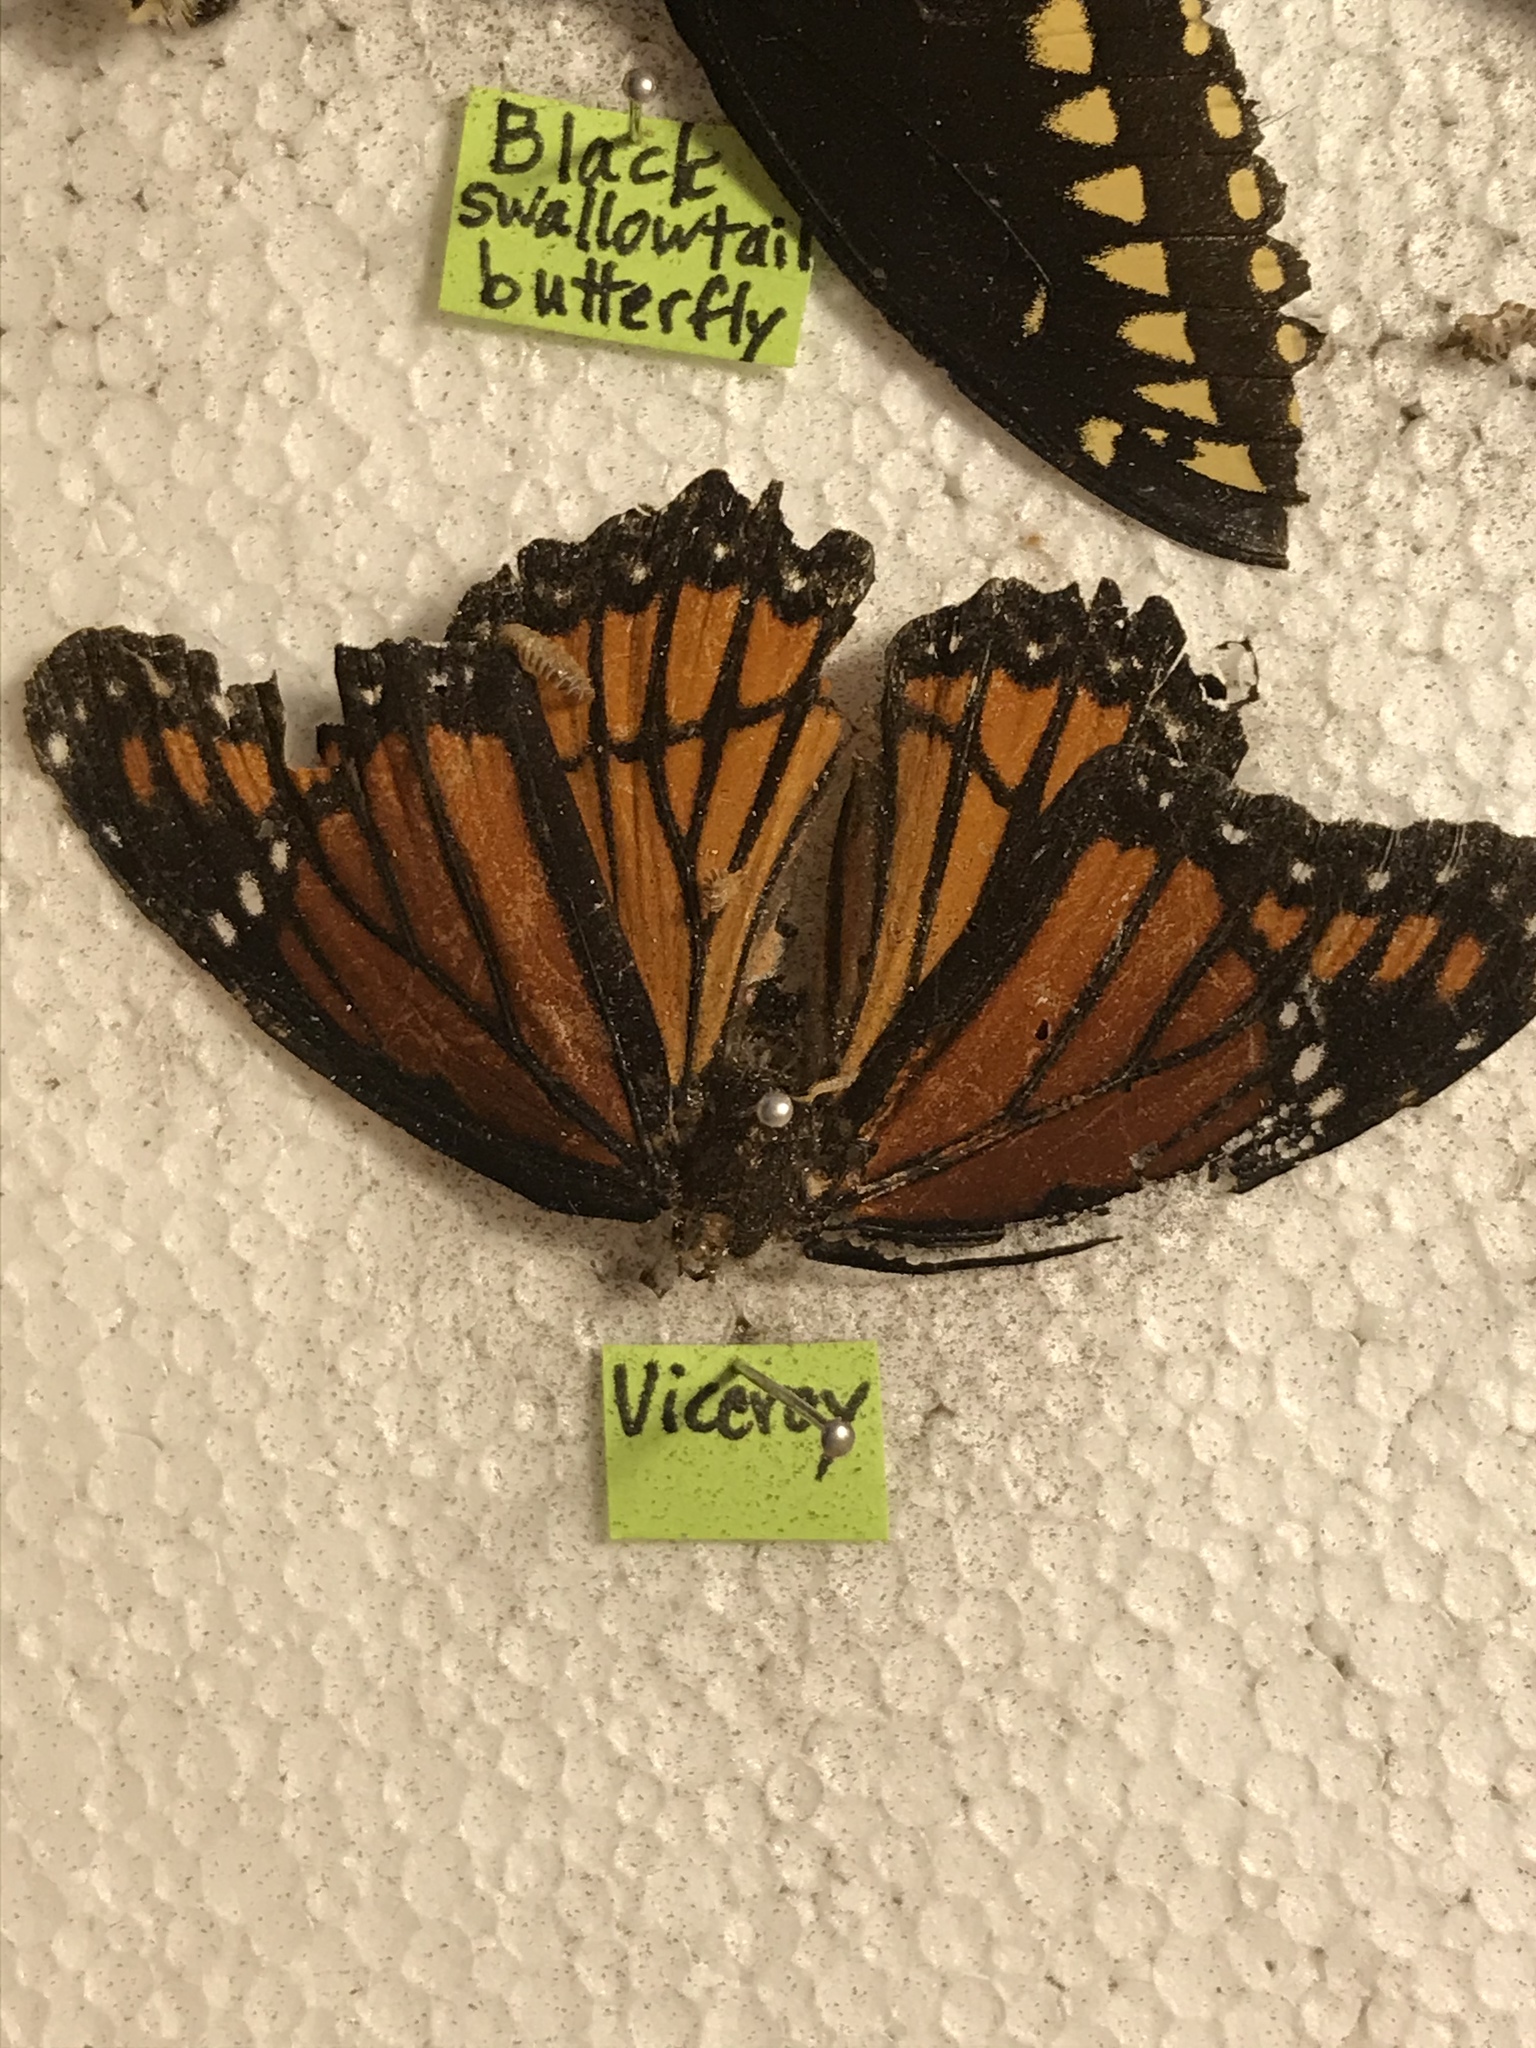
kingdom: Animalia
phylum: Arthropoda
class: Insecta
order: Lepidoptera
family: Nymphalidae
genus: Limenitis
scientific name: Limenitis archippus
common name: Viceroy
